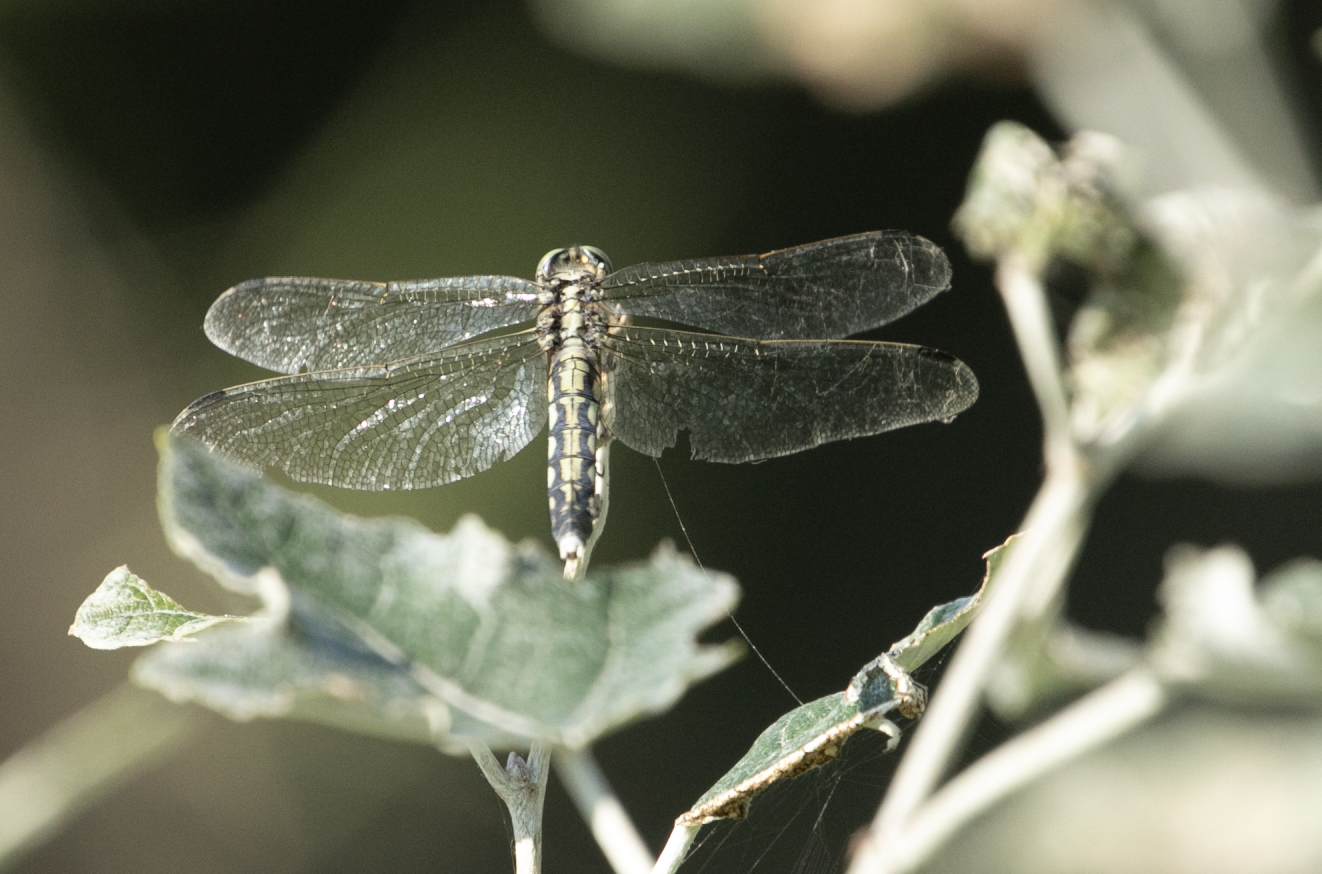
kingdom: Animalia
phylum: Arthropoda
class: Insecta
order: Odonata
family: Libellulidae
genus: Orthetrum
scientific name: Orthetrum albistylum
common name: White-tailed skimmer
